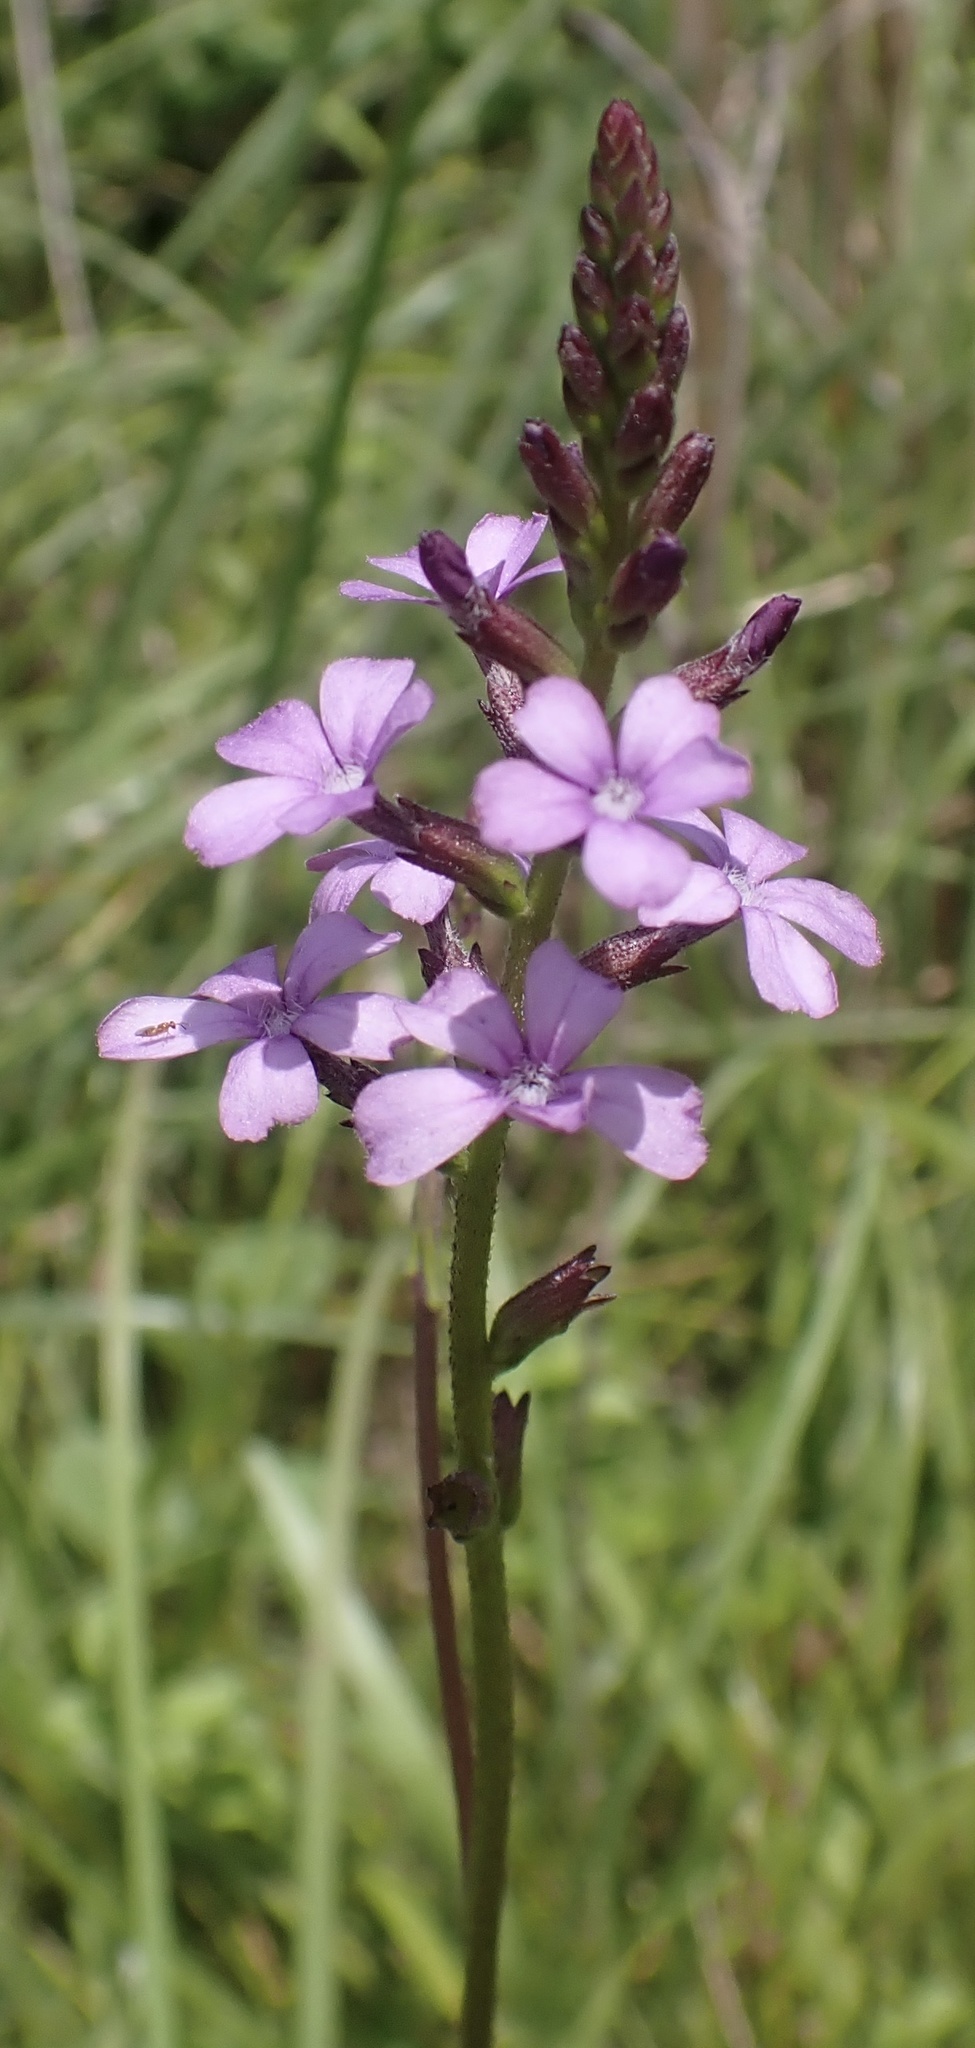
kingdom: Plantae
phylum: Tracheophyta
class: Magnoliopsida
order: Lamiales
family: Orobanchaceae
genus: Buchnera
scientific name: Buchnera floridana
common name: Florida bluehearts
